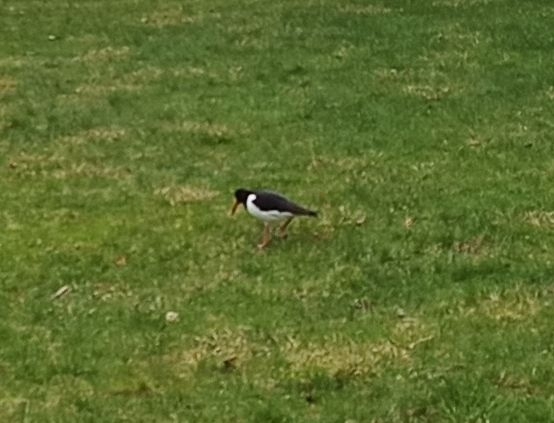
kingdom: Animalia
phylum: Chordata
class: Aves
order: Charadriiformes
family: Haematopodidae
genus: Haematopus
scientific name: Haematopus ostralegus
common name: Eurasian oystercatcher
